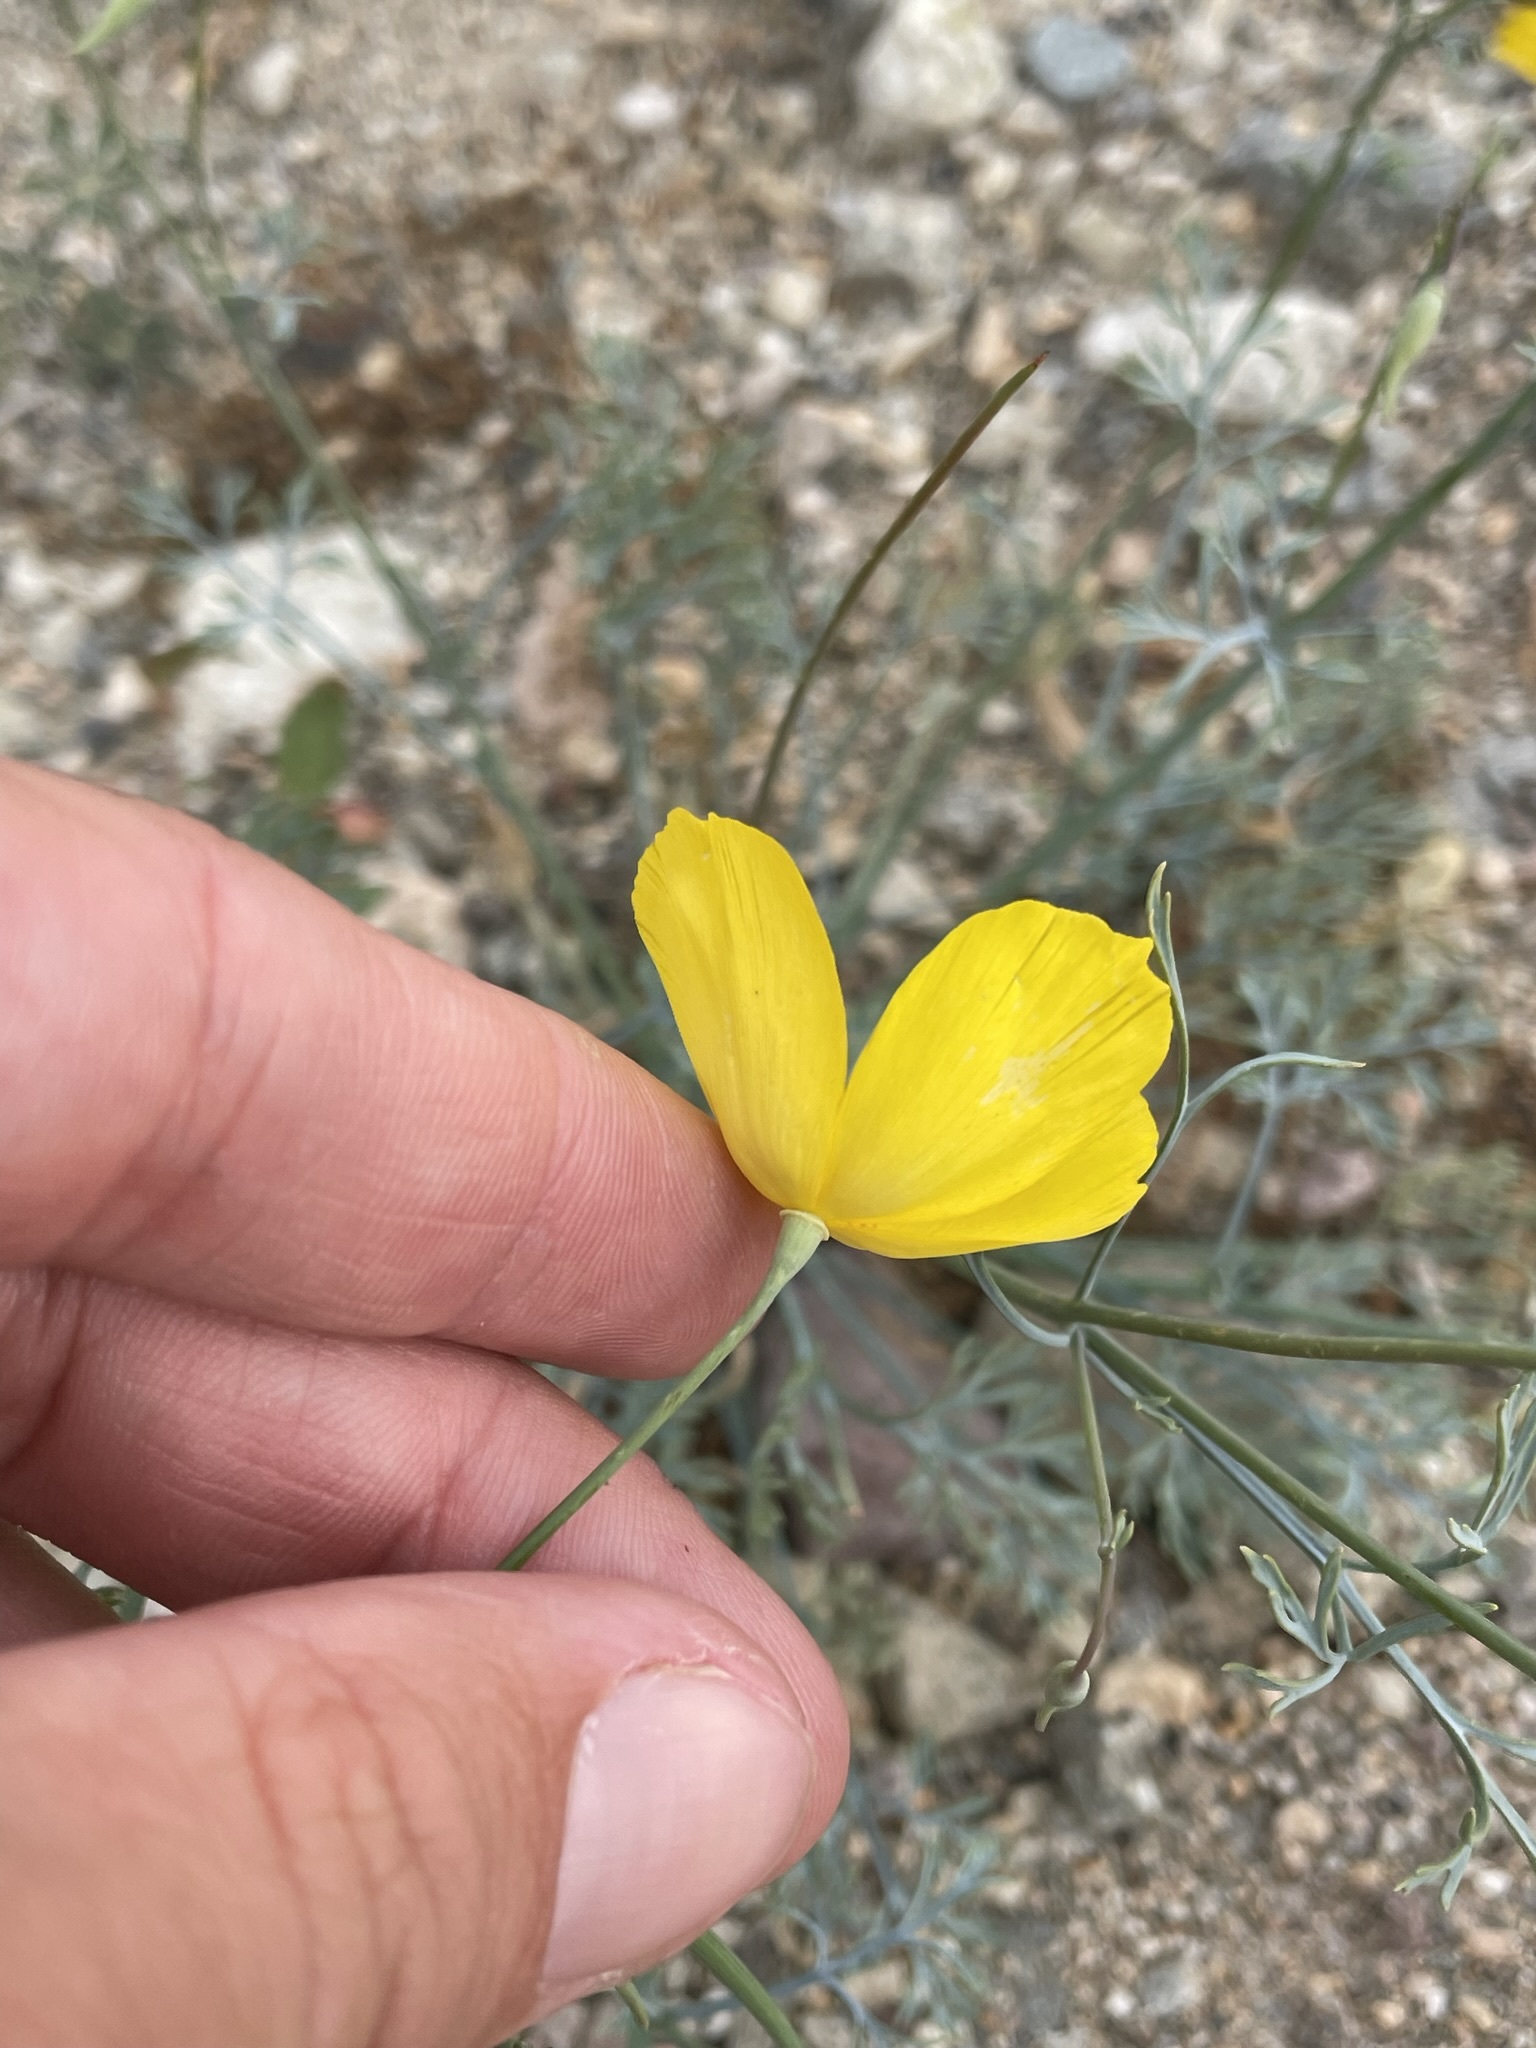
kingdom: Plantae
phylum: Tracheophyta
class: Magnoliopsida
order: Ranunculales
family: Papaveraceae
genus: Eschscholzia
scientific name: Eschscholzia papastillii
